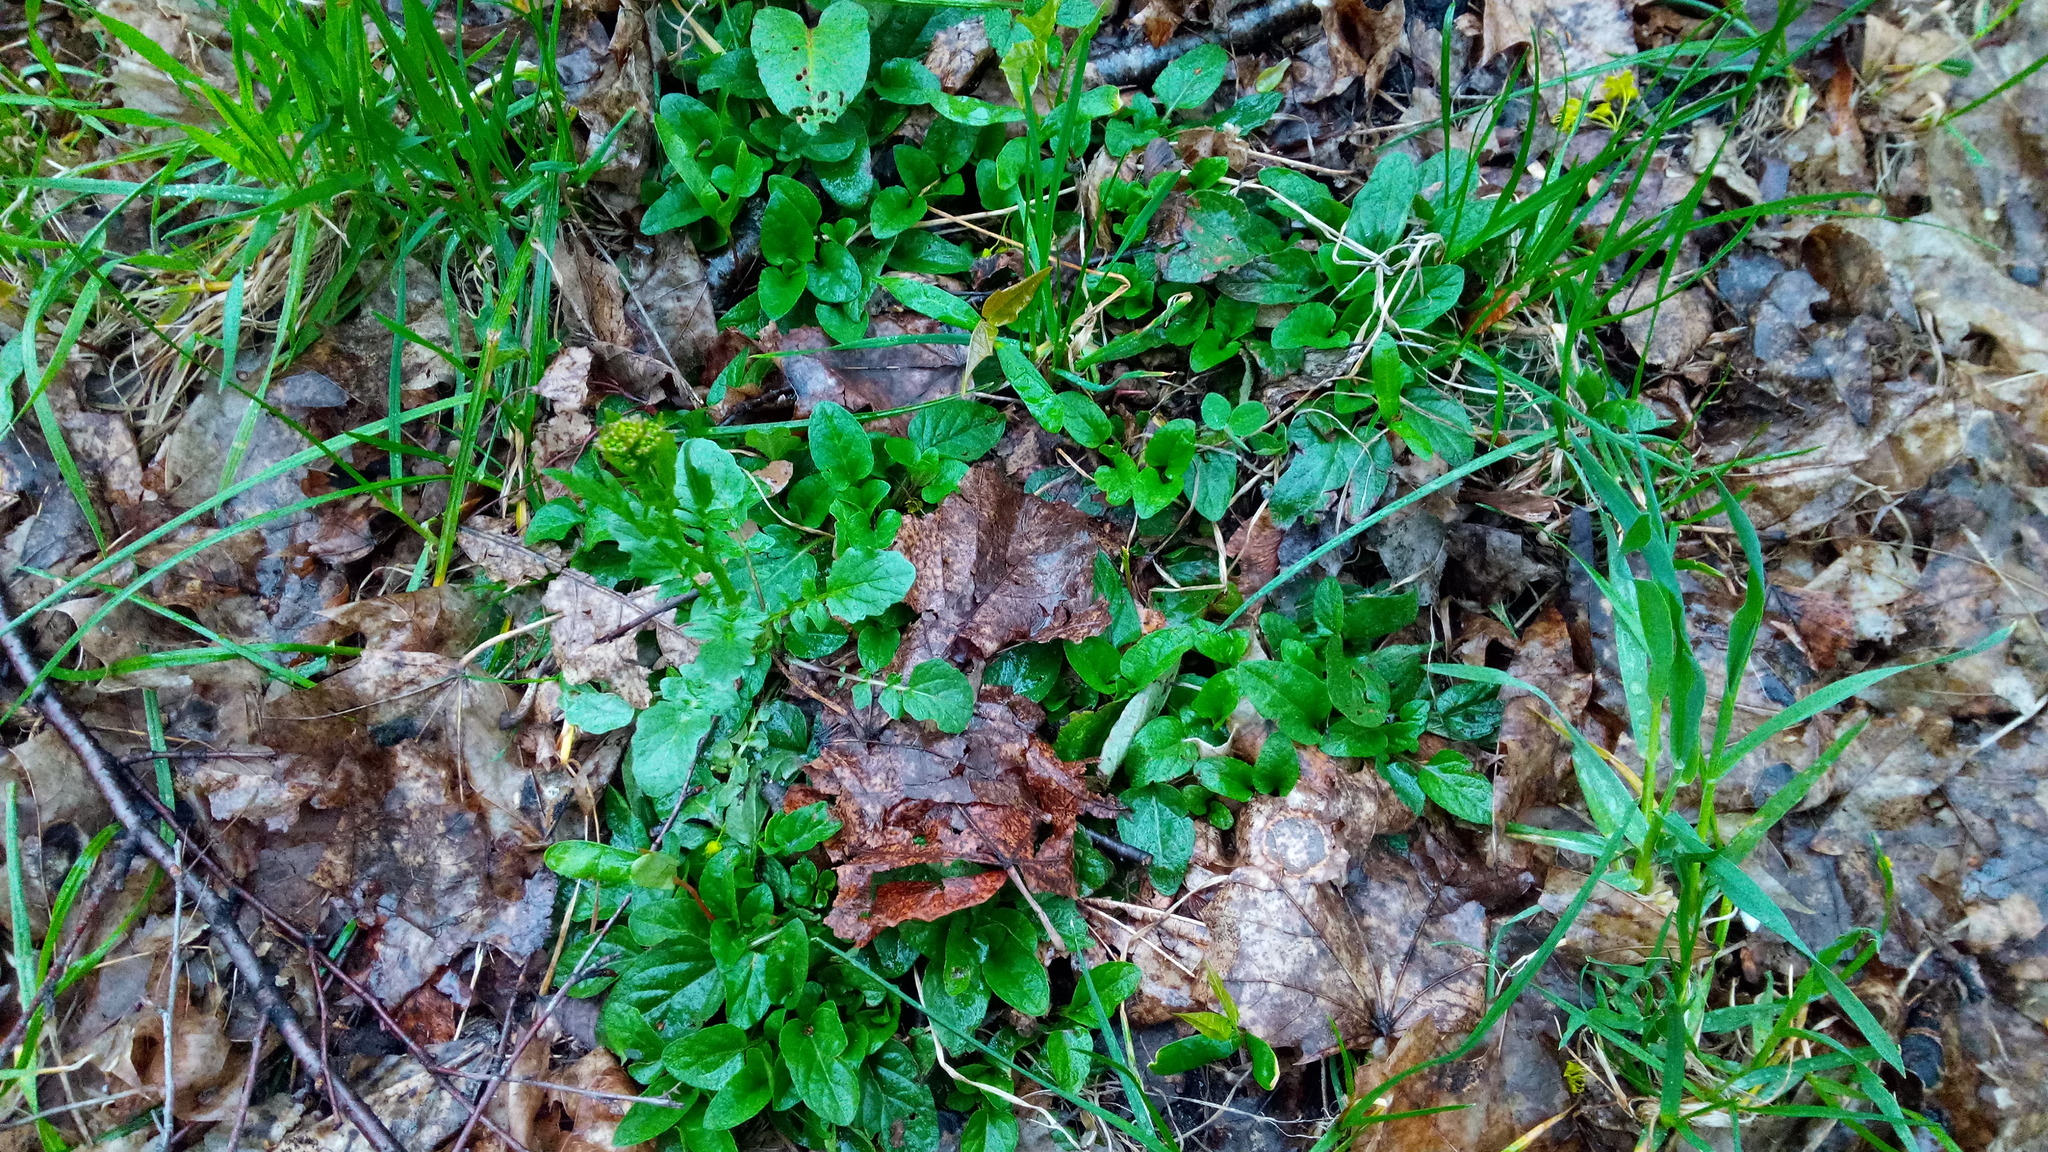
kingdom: Plantae
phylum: Tracheophyta
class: Magnoliopsida
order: Lamiales
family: Lamiaceae
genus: Prunella
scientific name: Prunella vulgaris
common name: Heal-all
